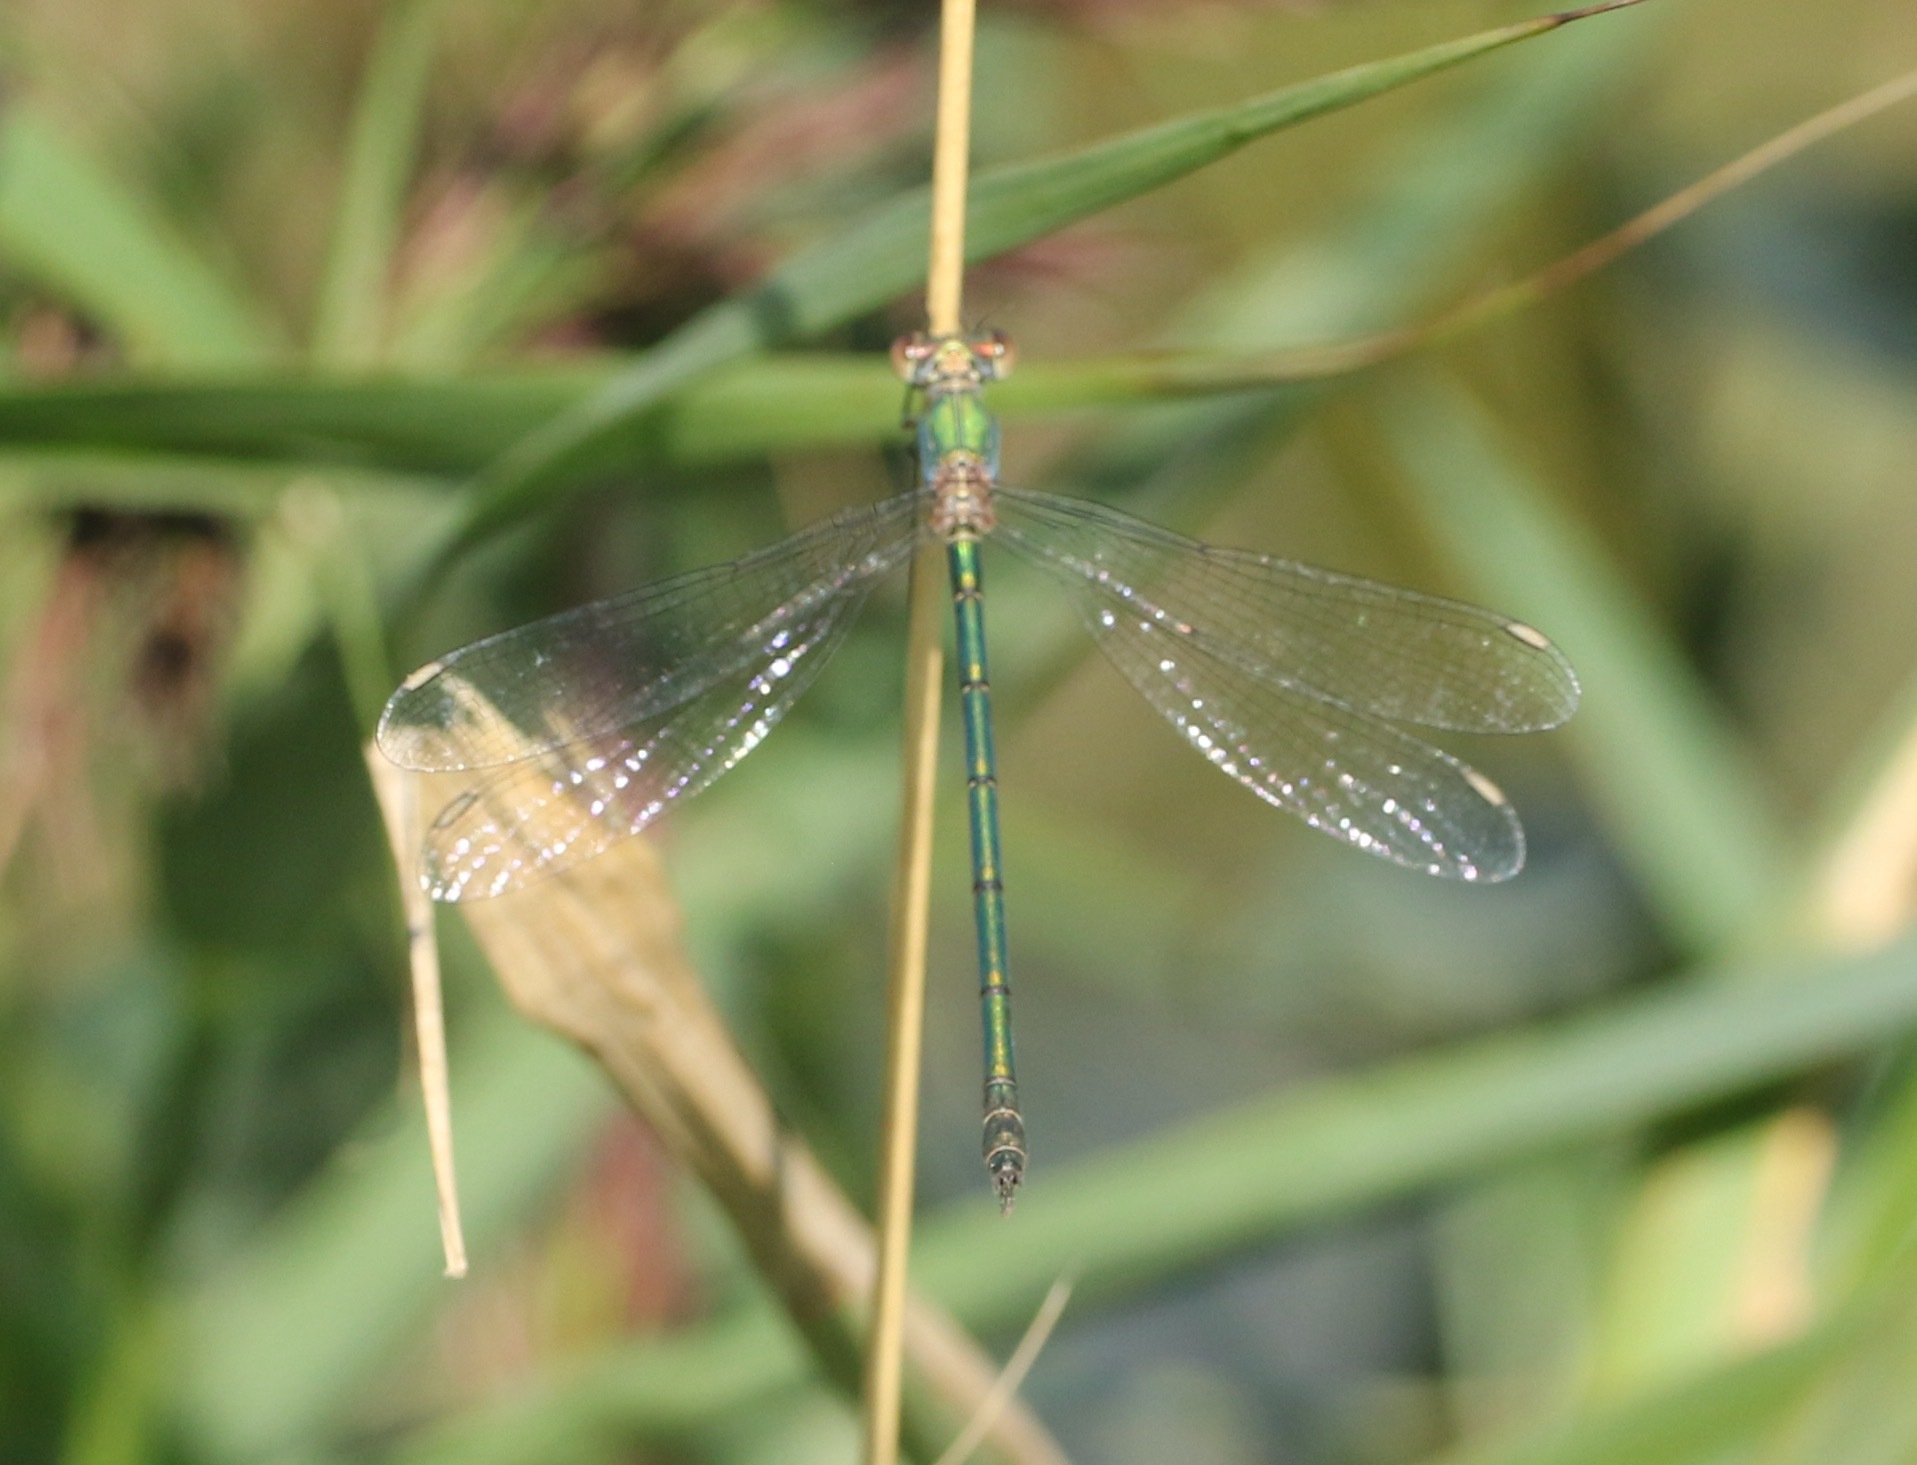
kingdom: Animalia
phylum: Arthropoda
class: Insecta
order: Odonata
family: Lestidae
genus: Chalcolestes
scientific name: Chalcolestes viridis
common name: Green emerald damselfly
